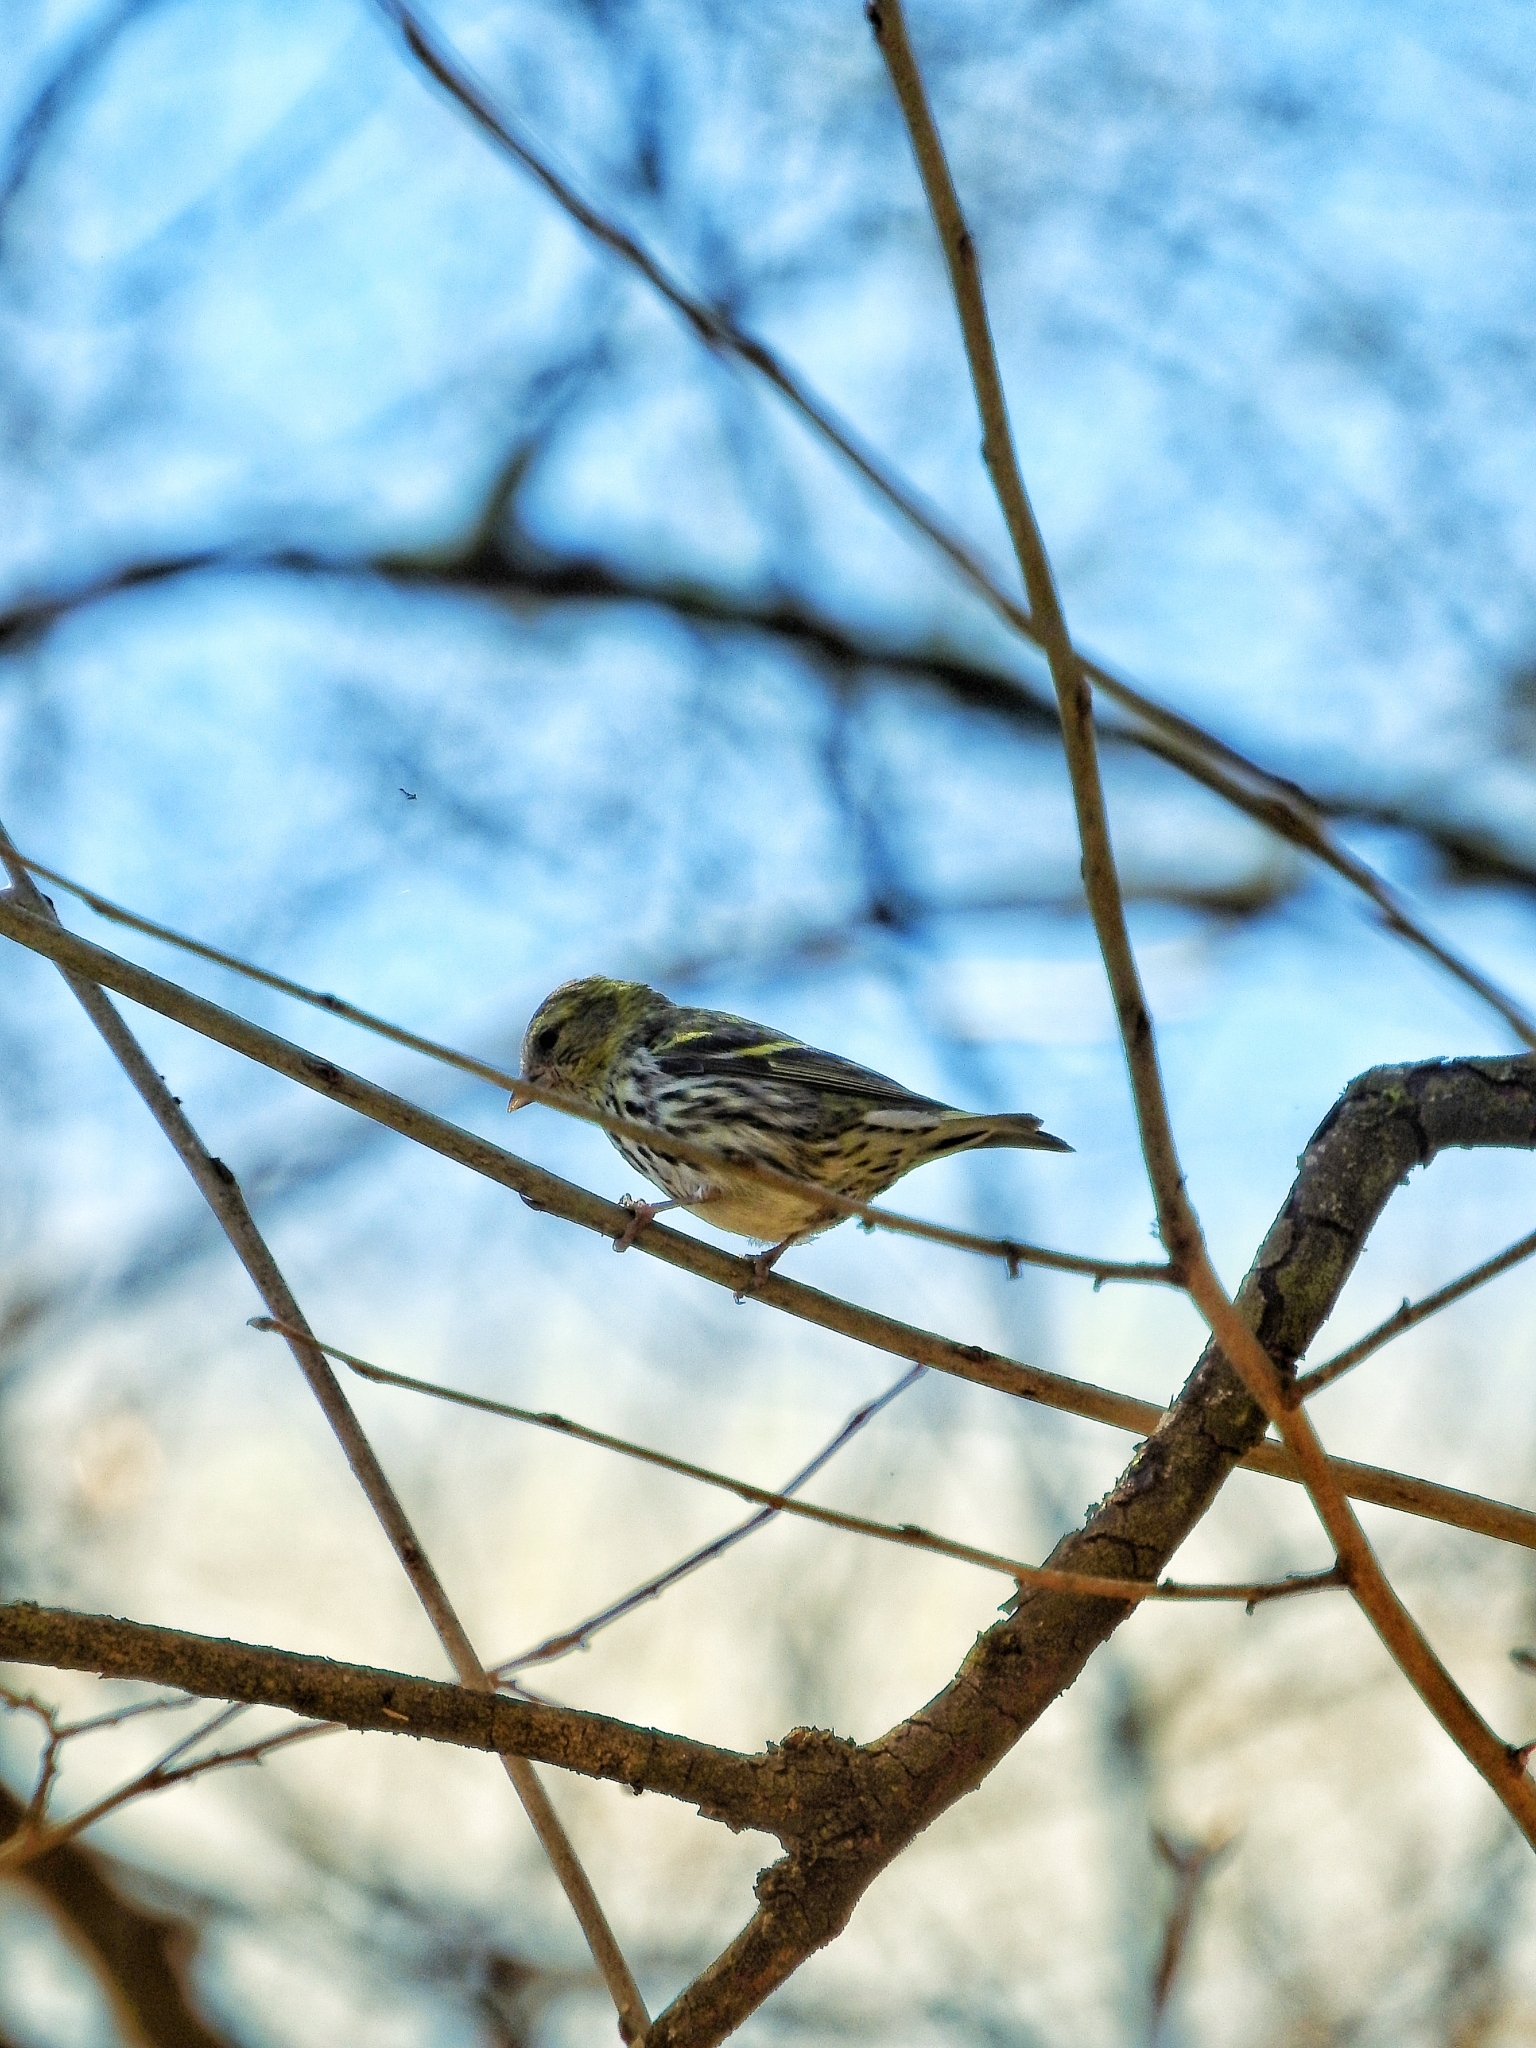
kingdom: Animalia
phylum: Chordata
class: Aves
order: Passeriformes
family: Fringillidae
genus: Spinus
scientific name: Spinus spinus
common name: Eurasian siskin
